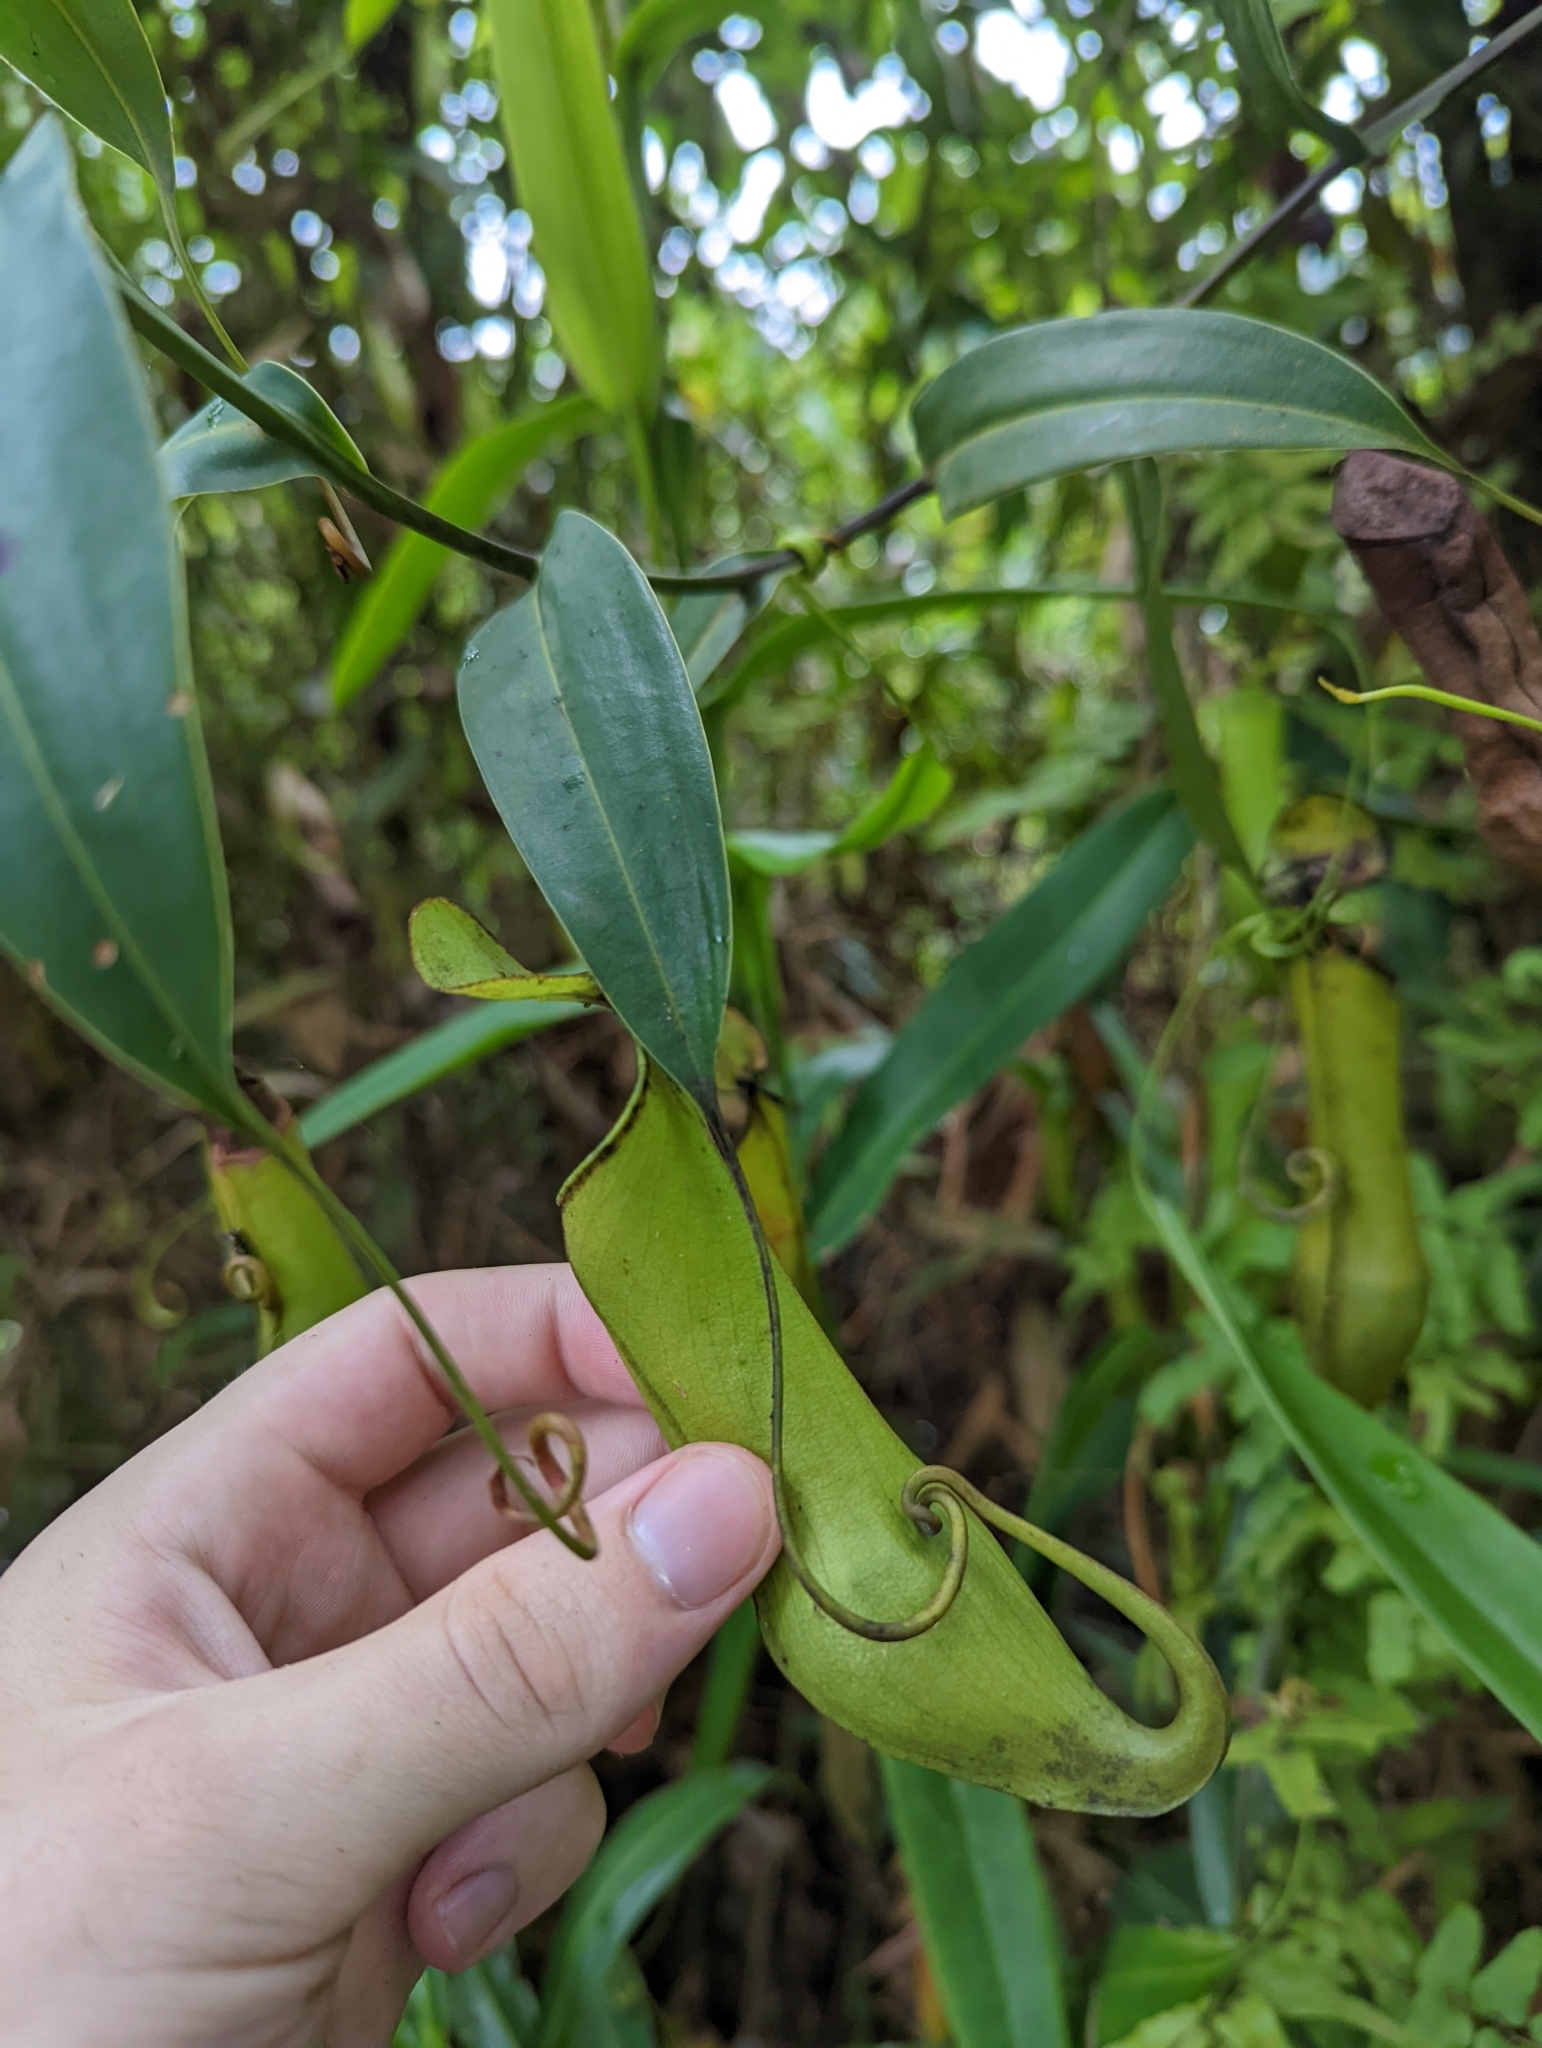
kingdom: Plantae
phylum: Tracheophyta
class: Magnoliopsida
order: Caryophyllales
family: Nepenthaceae
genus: Nepenthes
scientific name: Nepenthes gracilis
